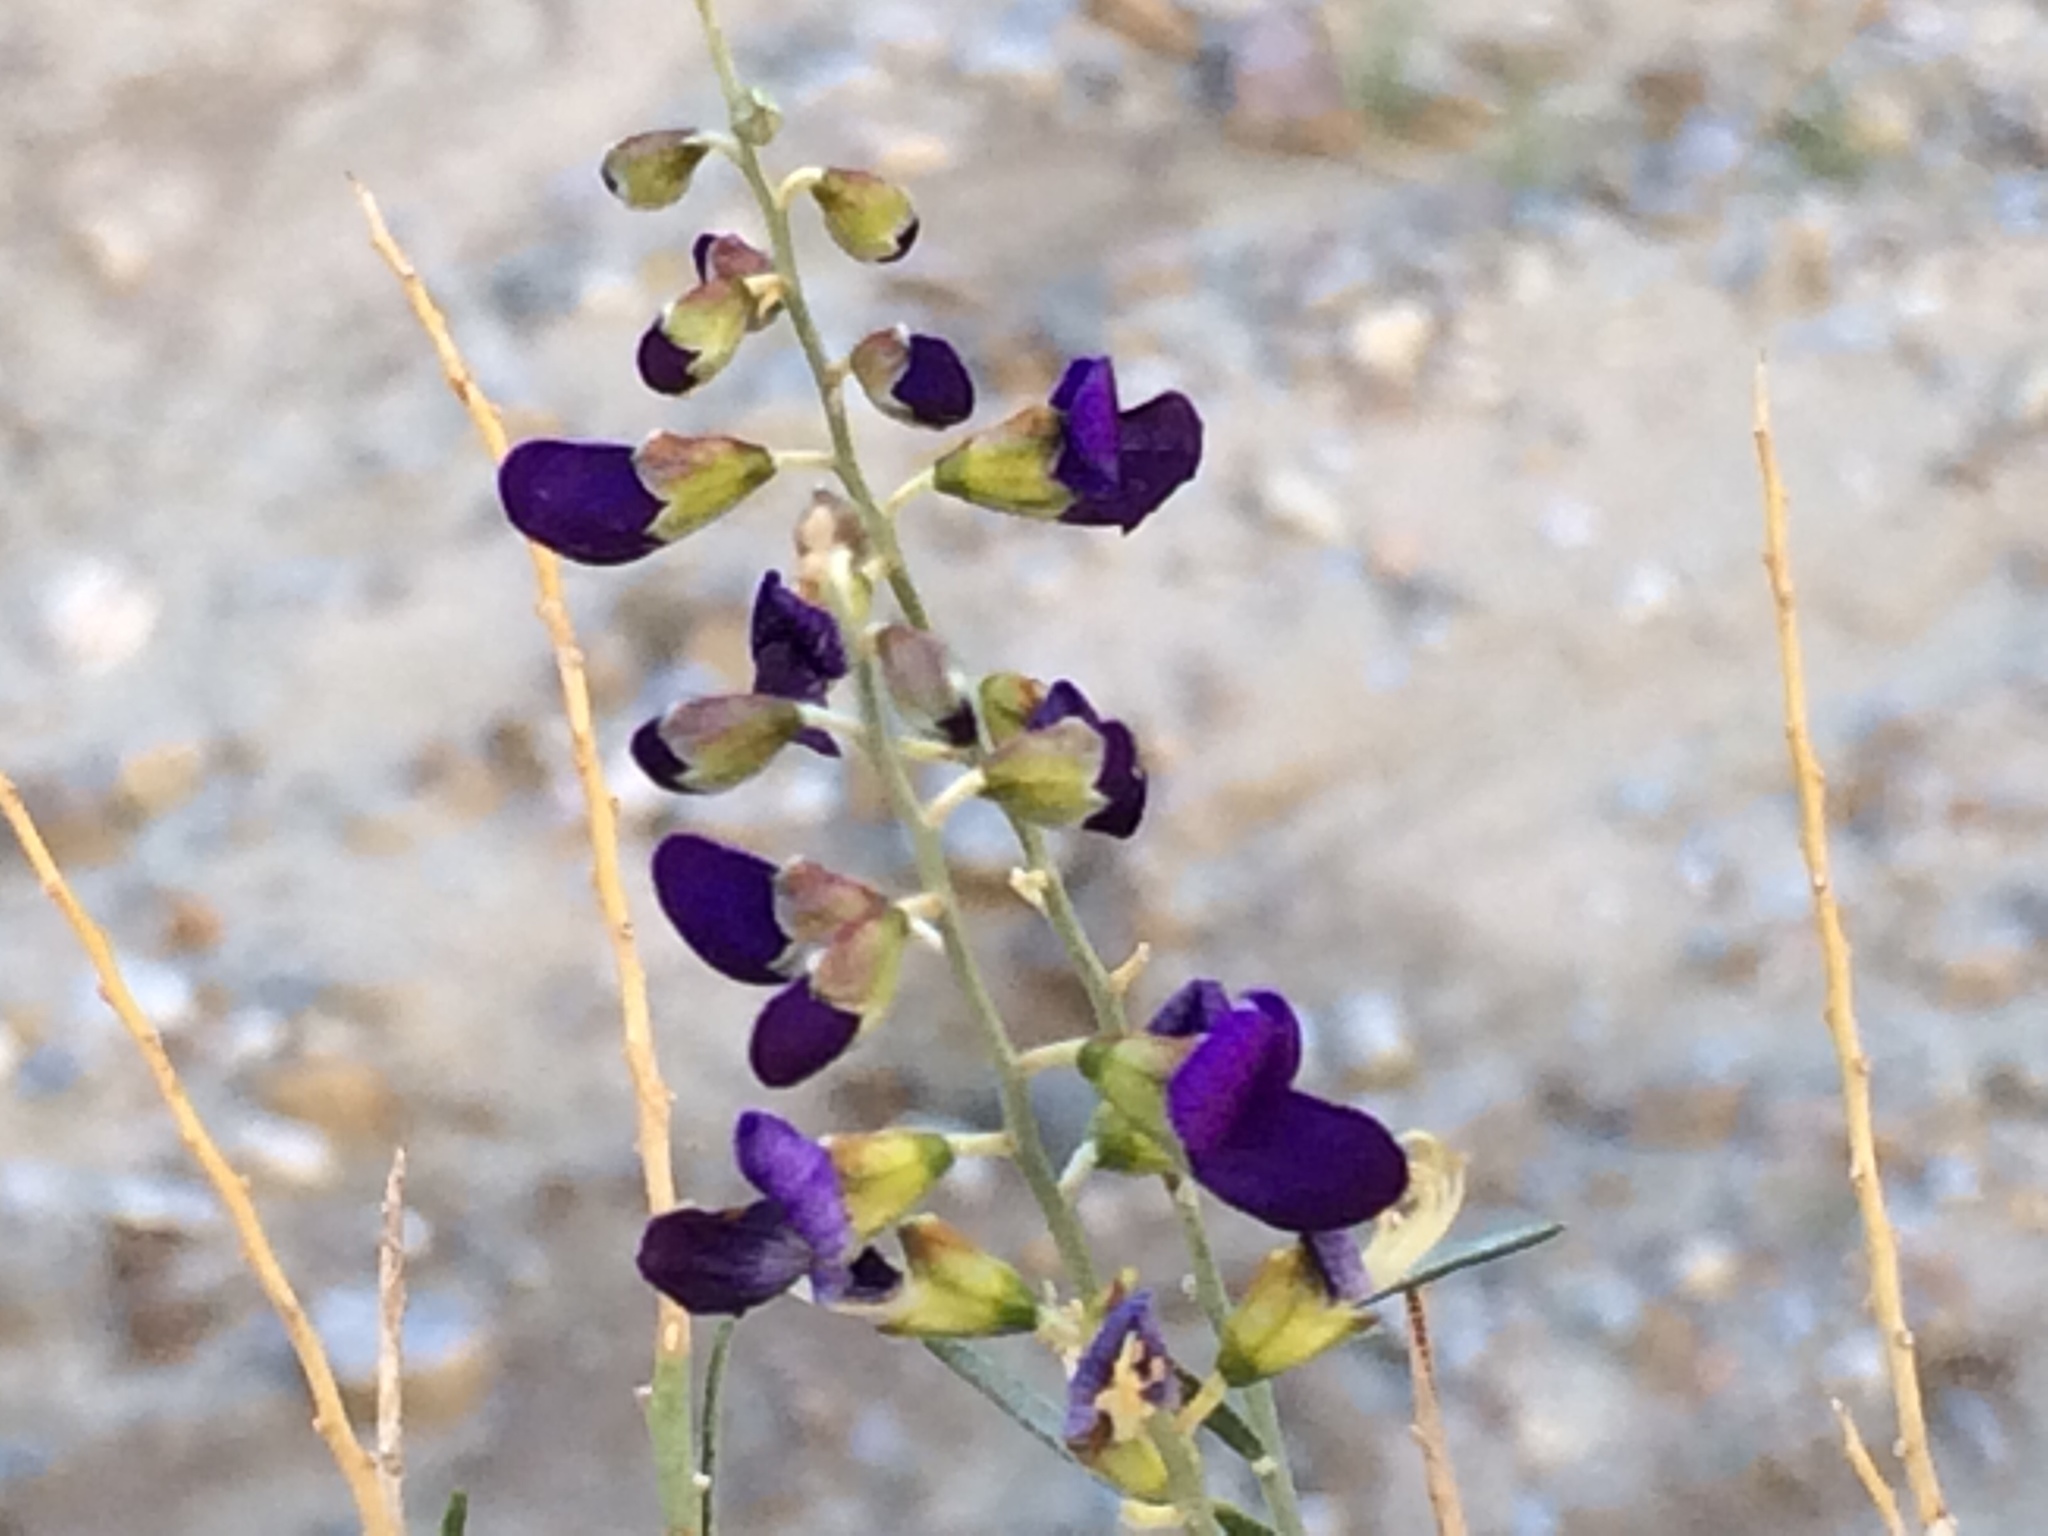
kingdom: Plantae
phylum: Tracheophyta
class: Magnoliopsida
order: Fabales
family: Fabaceae
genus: Psorothamnus
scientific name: Psorothamnus schottii
